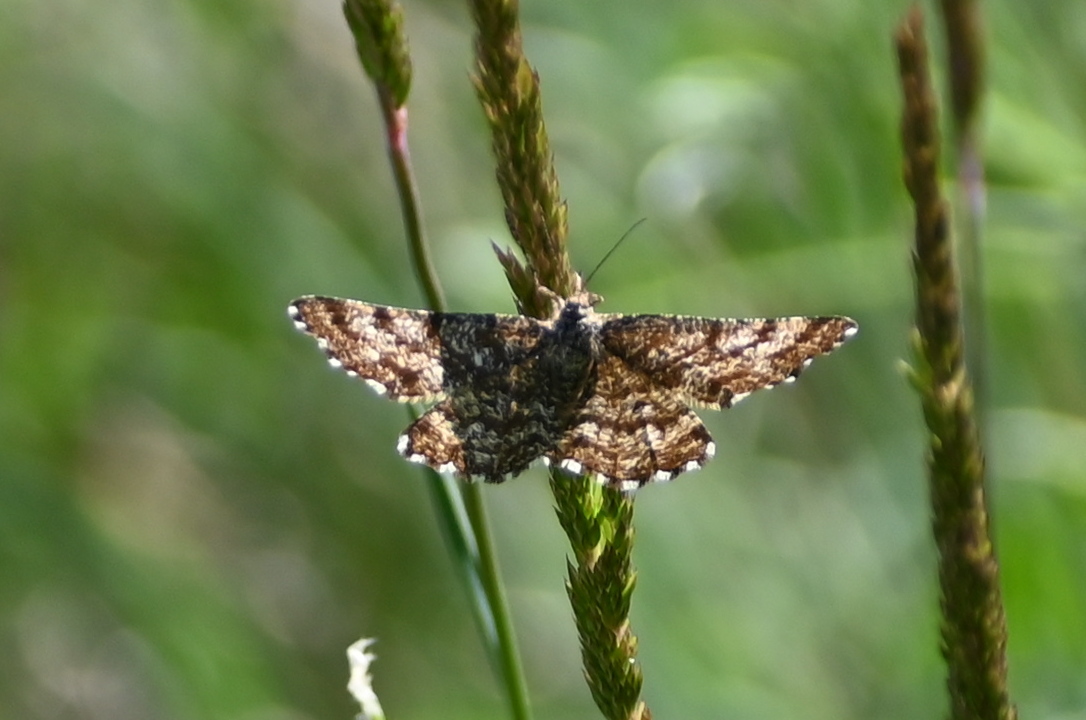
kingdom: Animalia
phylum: Arthropoda
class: Insecta
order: Lepidoptera
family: Geometridae
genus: Ematurga
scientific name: Ematurga atomaria
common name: Common heath
